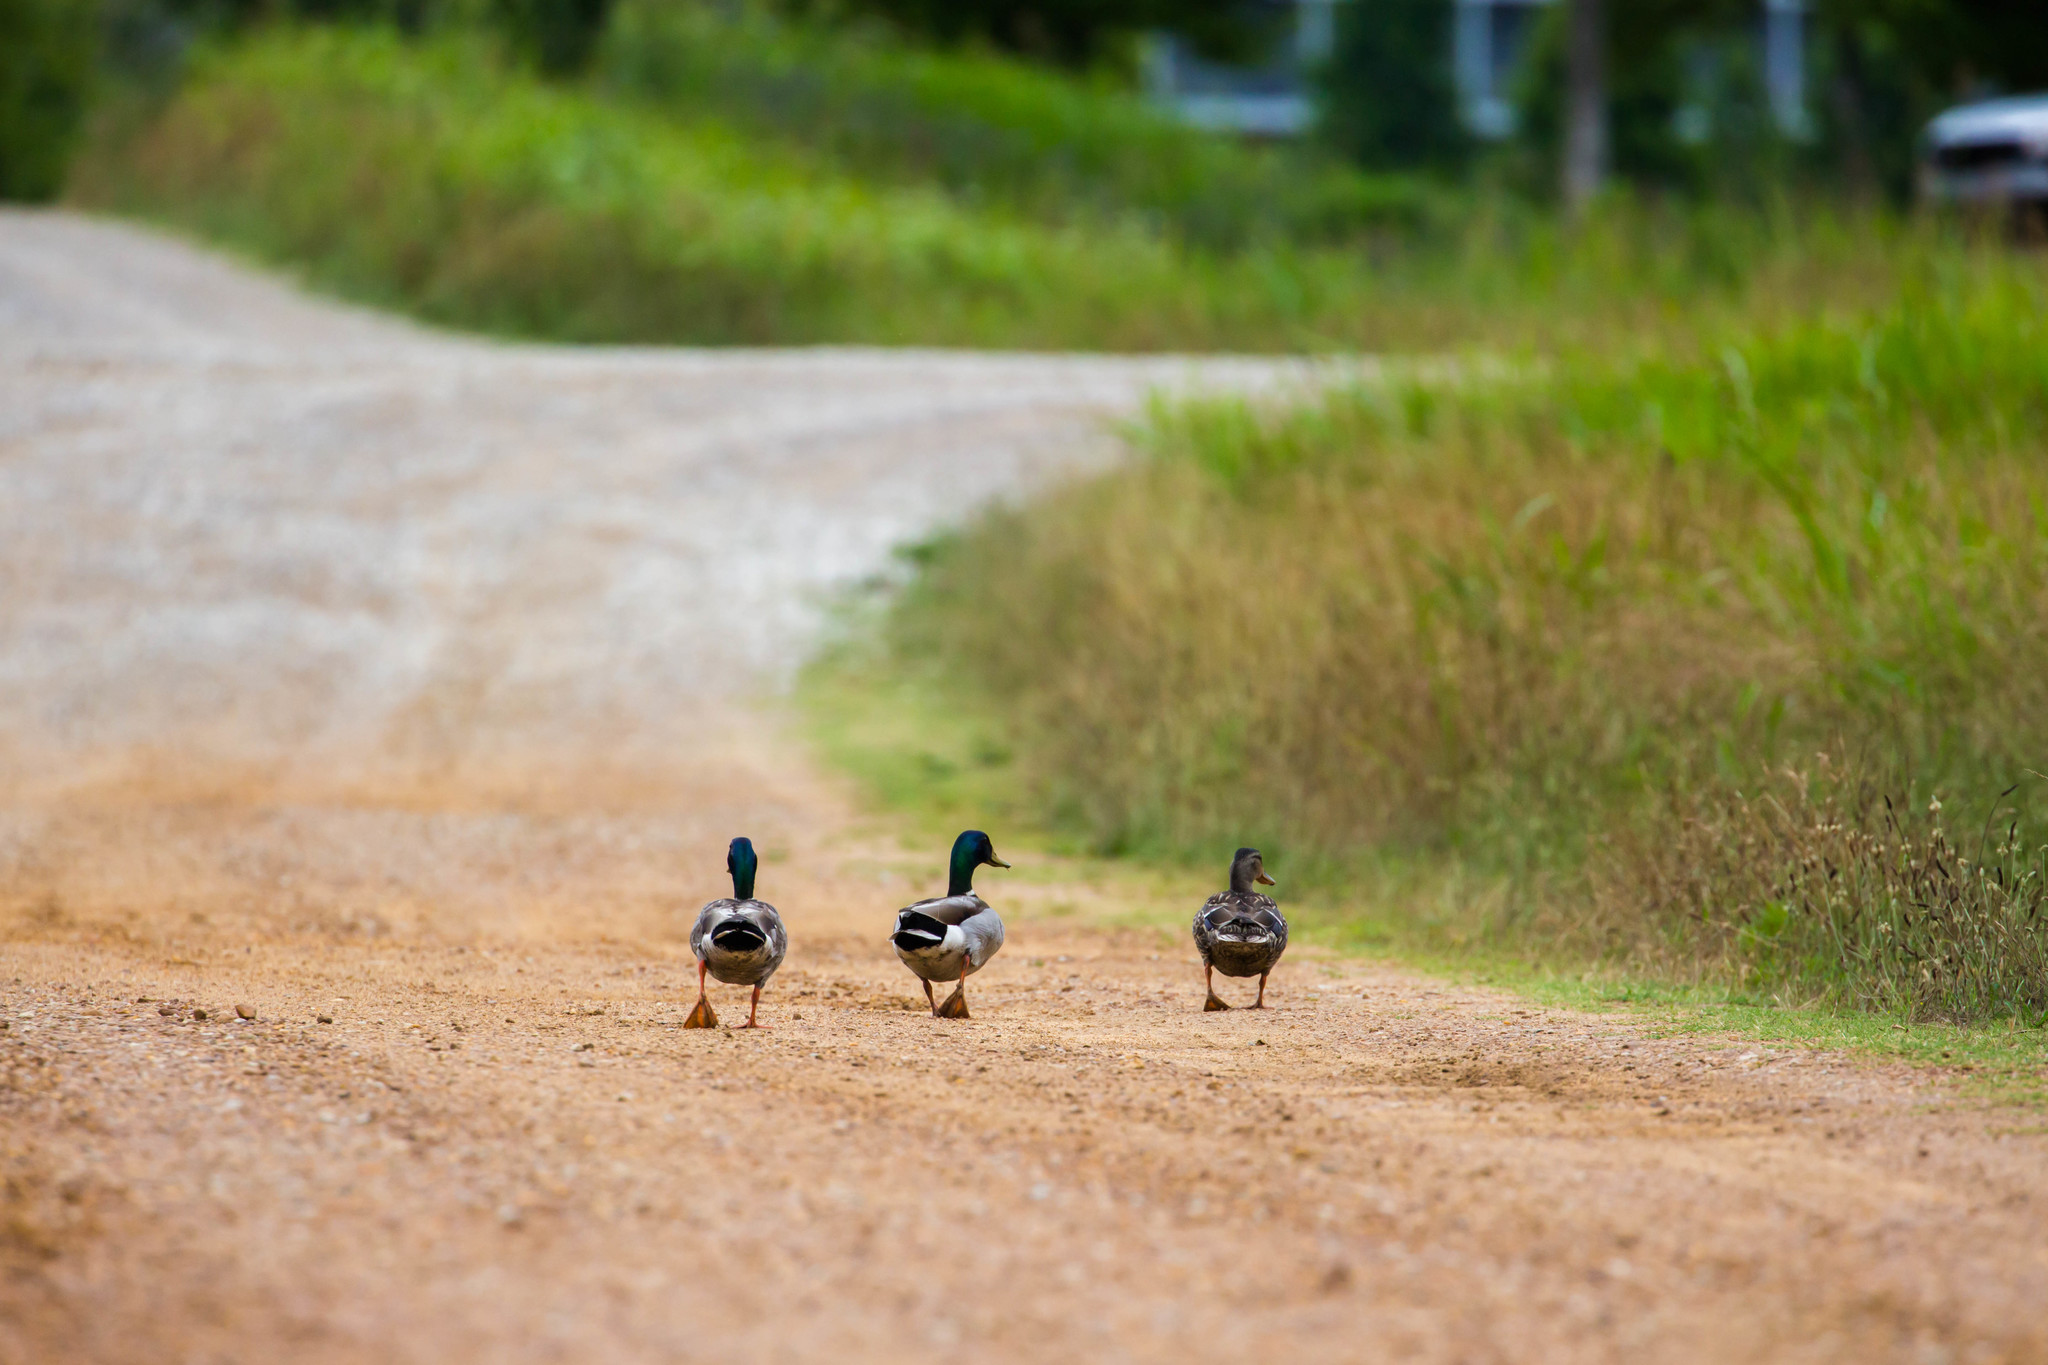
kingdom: Animalia
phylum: Chordata
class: Aves
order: Anseriformes
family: Anatidae
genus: Anas
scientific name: Anas platyrhynchos
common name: Mallard
